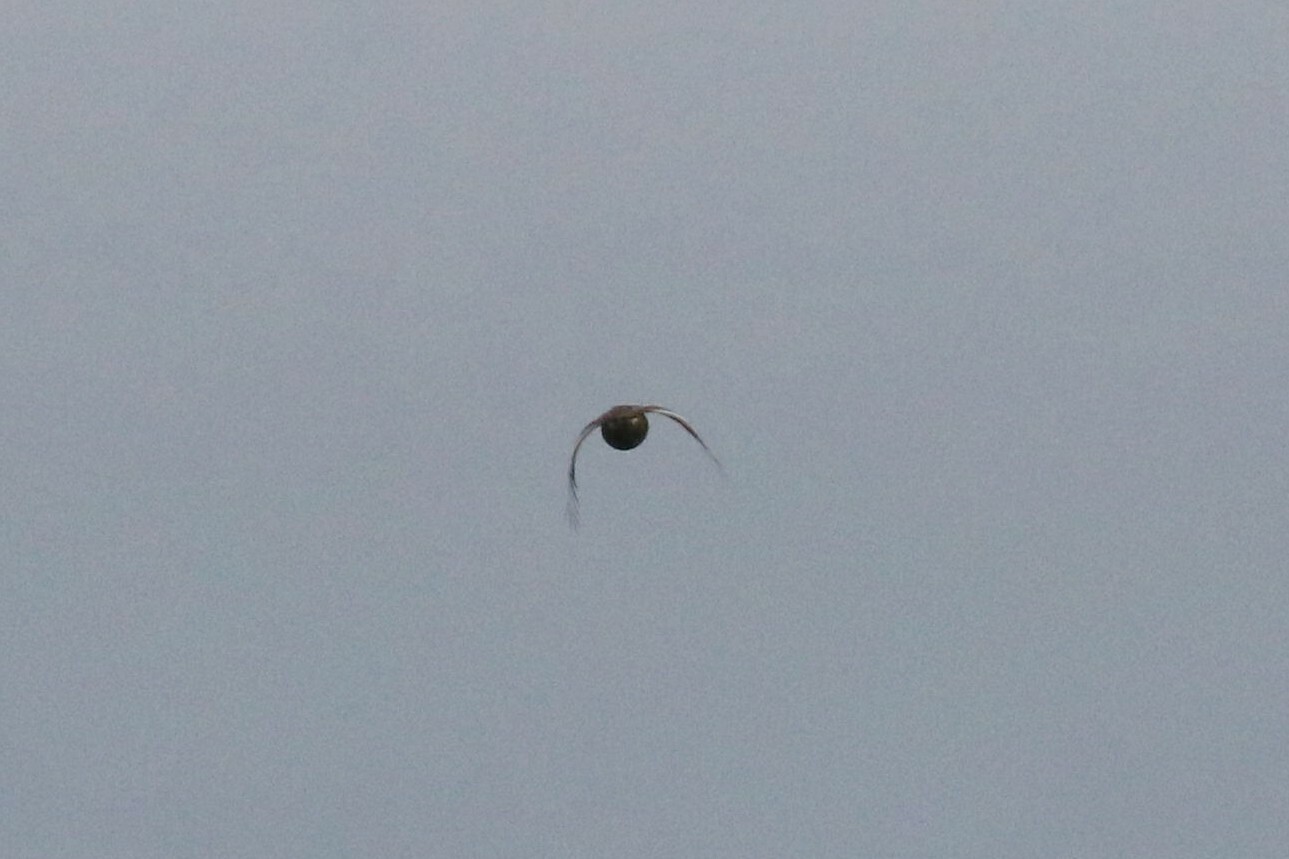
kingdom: Animalia
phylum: Chordata
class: Aves
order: Galliformes
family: Phasianidae
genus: Lyrurus
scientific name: Lyrurus tetrix
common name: Black grouse
